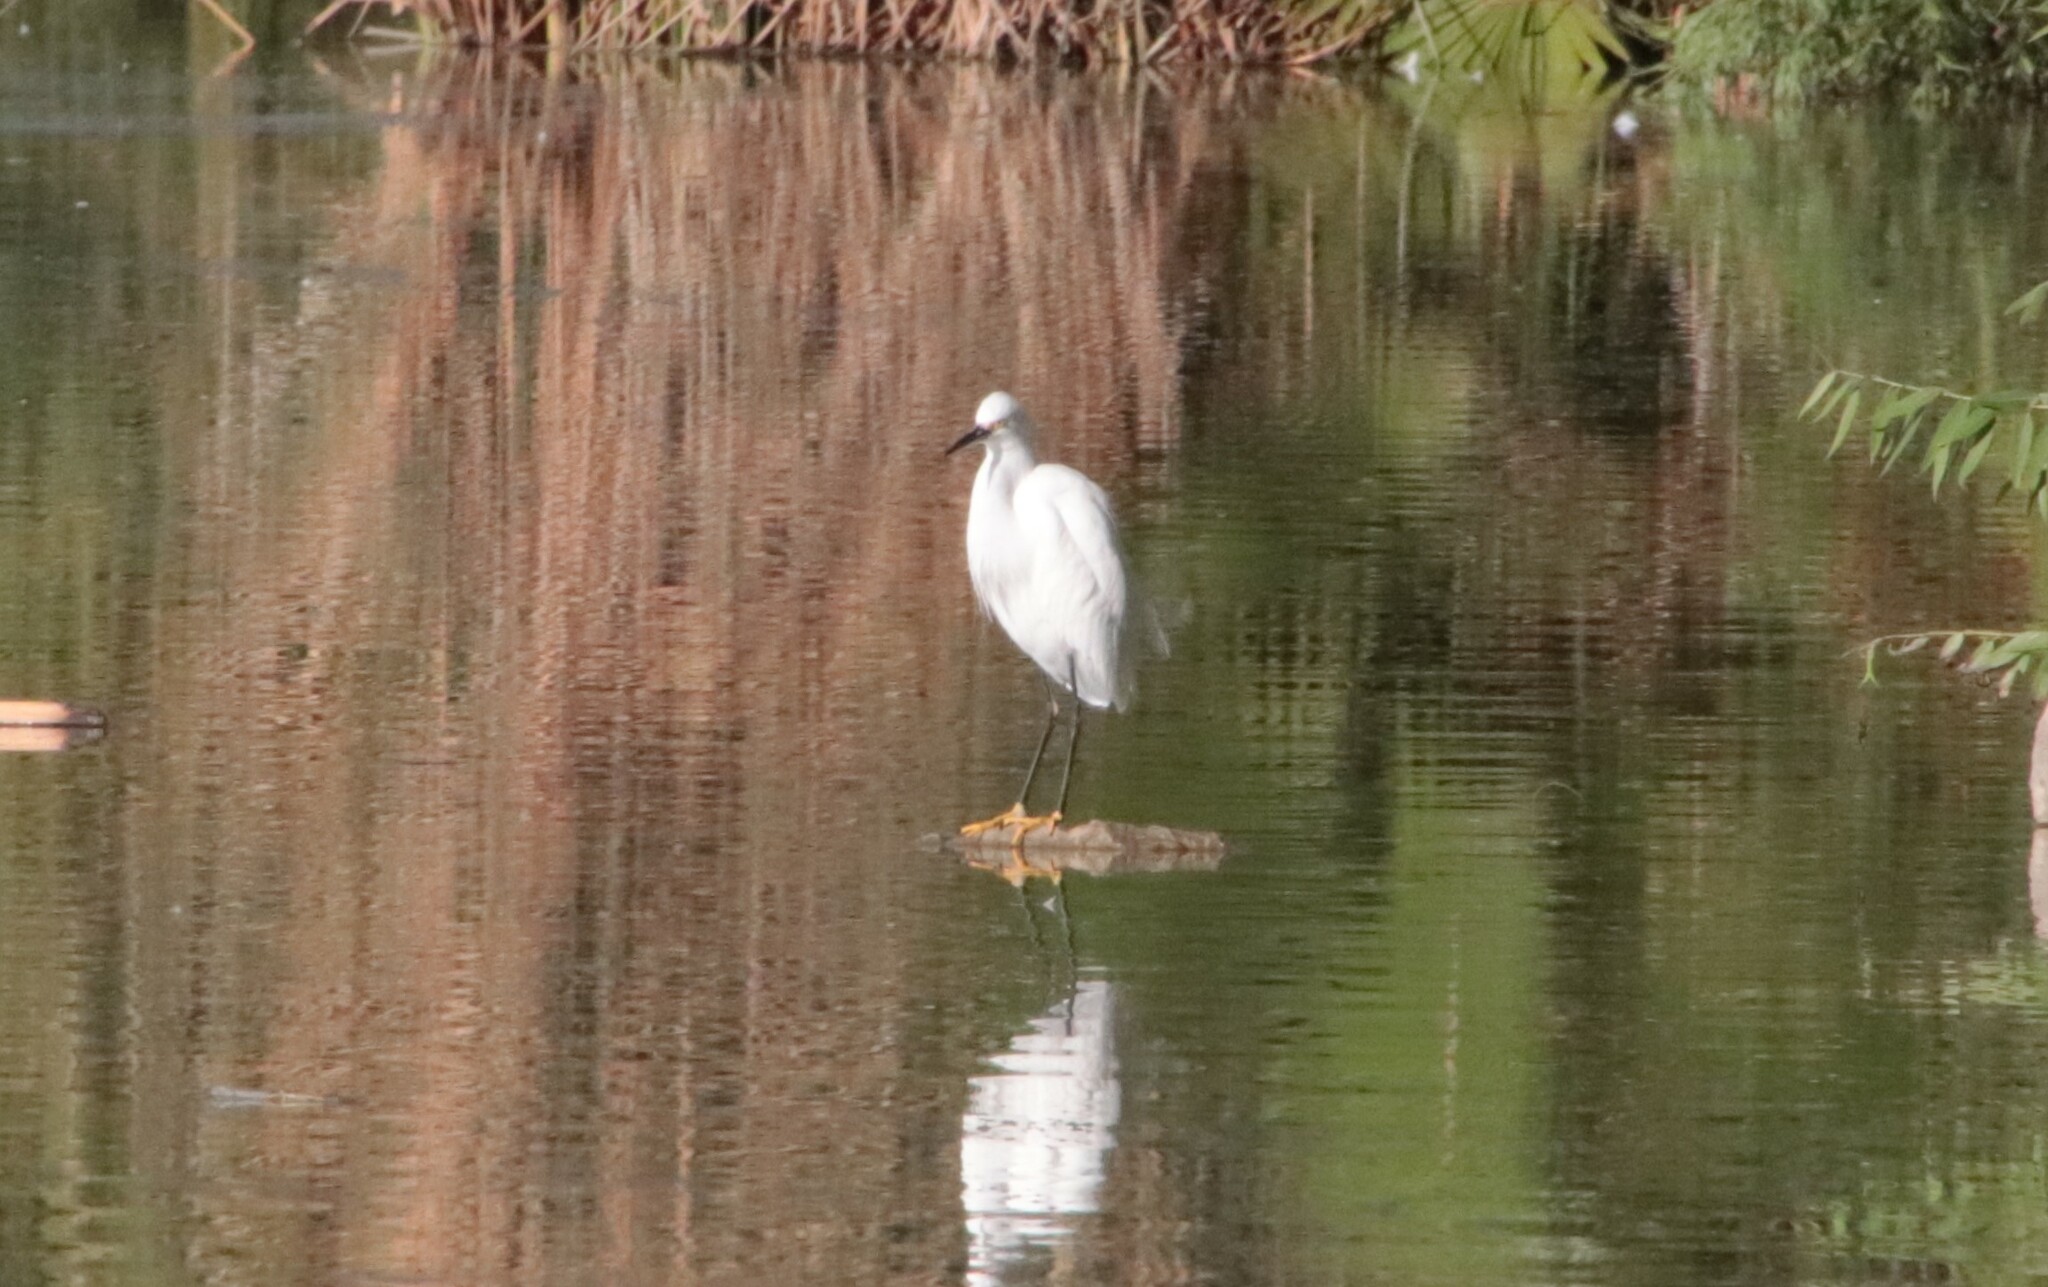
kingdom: Animalia
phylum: Chordata
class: Aves
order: Pelecaniformes
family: Ardeidae
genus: Egretta
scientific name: Egretta thula
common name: Snowy egret
